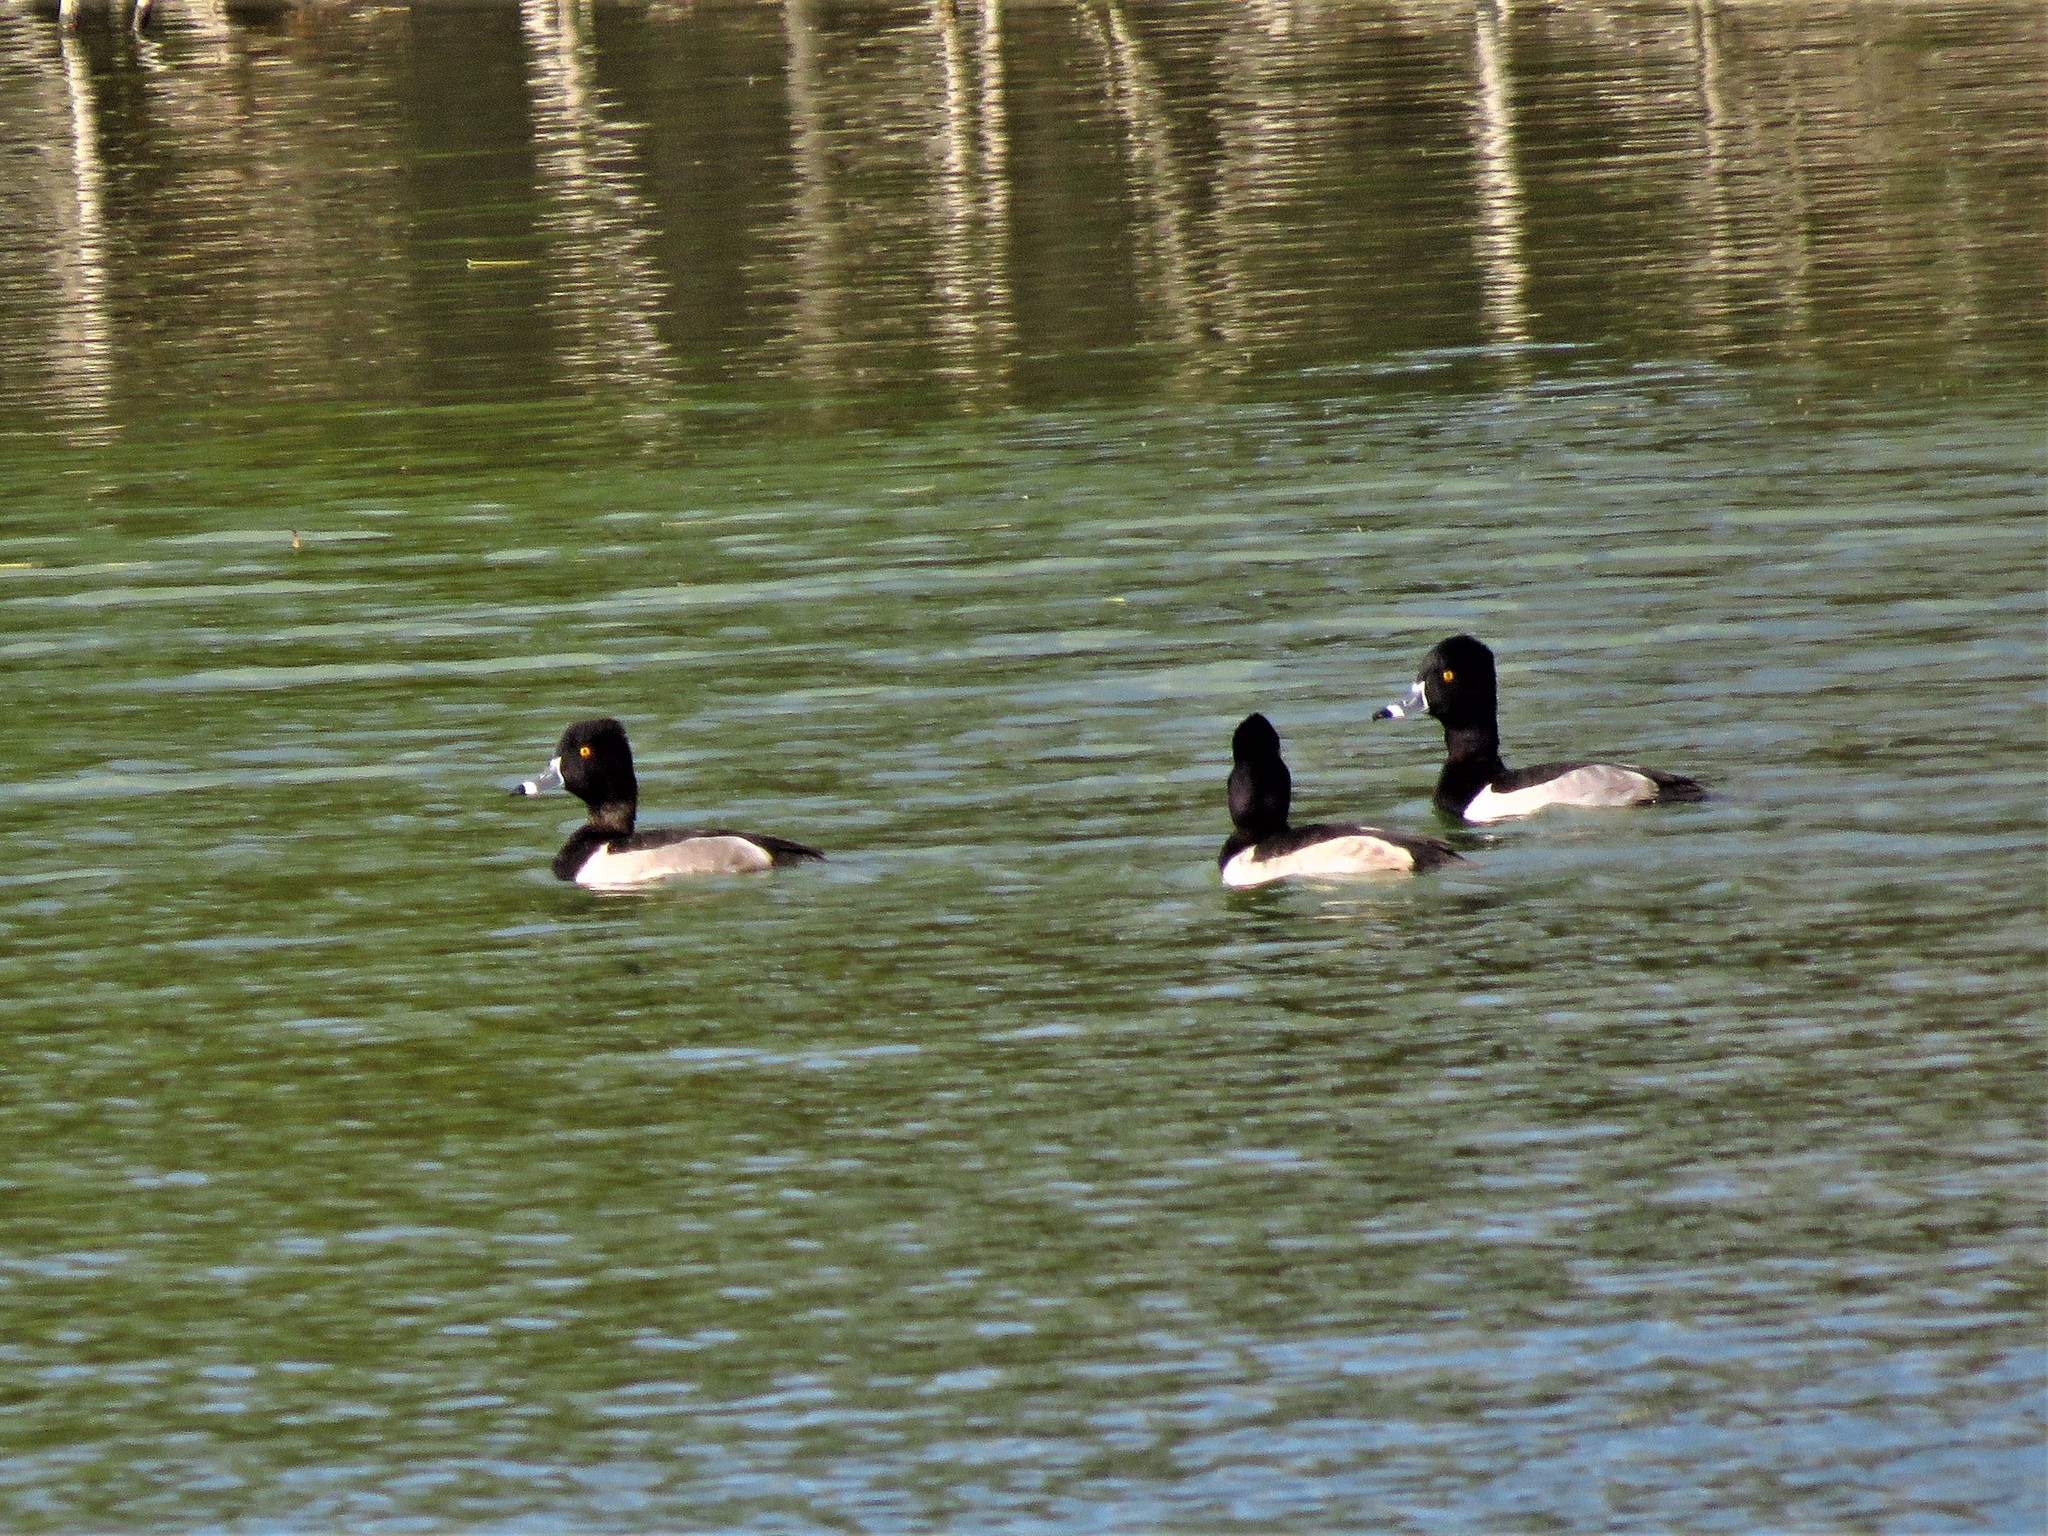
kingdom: Animalia
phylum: Chordata
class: Aves
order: Anseriformes
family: Anatidae
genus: Aythya
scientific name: Aythya collaris
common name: Ring-necked duck
